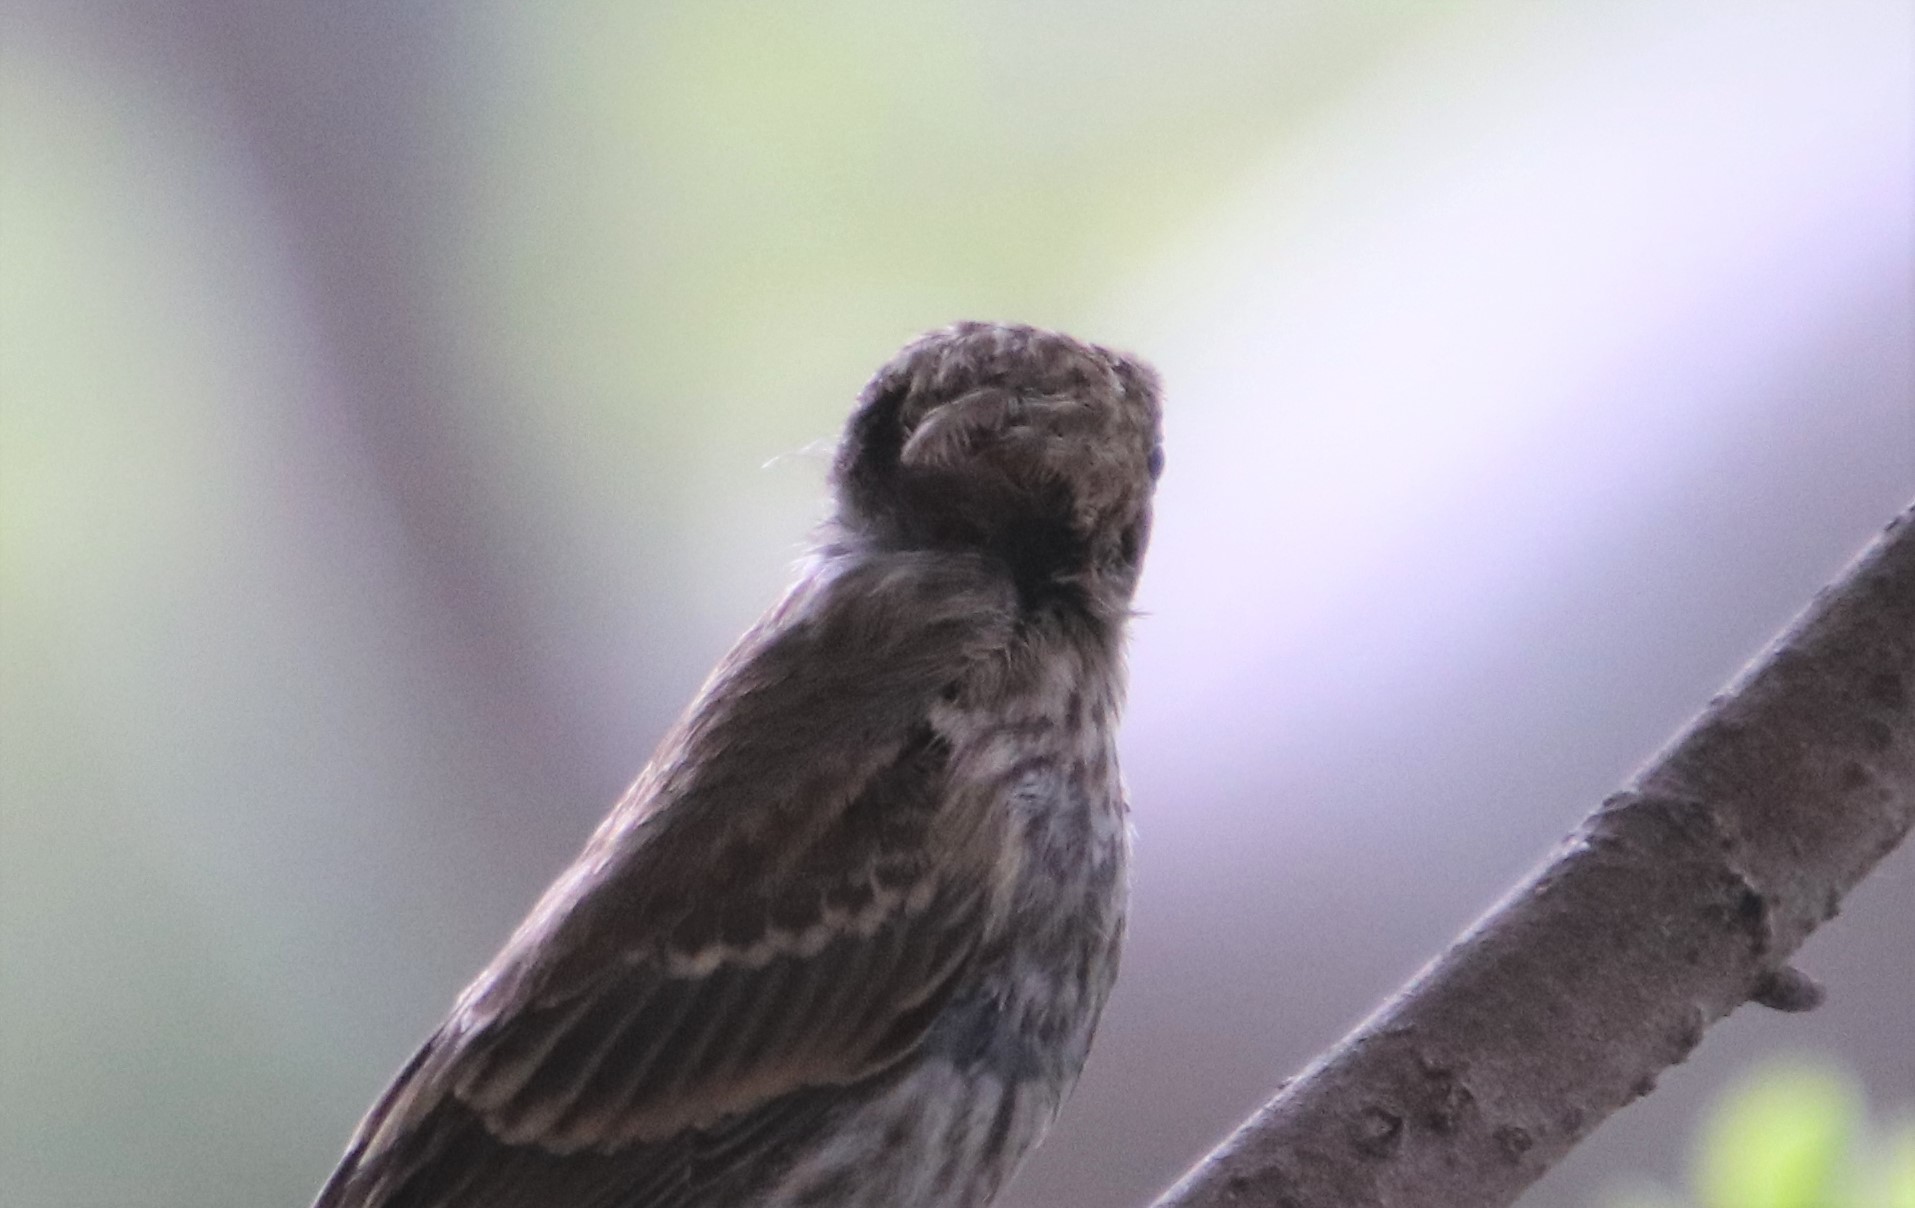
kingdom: Animalia
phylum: Chordata
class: Aves
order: Passeriformes
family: Fringillidae
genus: Haemorhous
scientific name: Haemorhous mexicanus
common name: House finch
